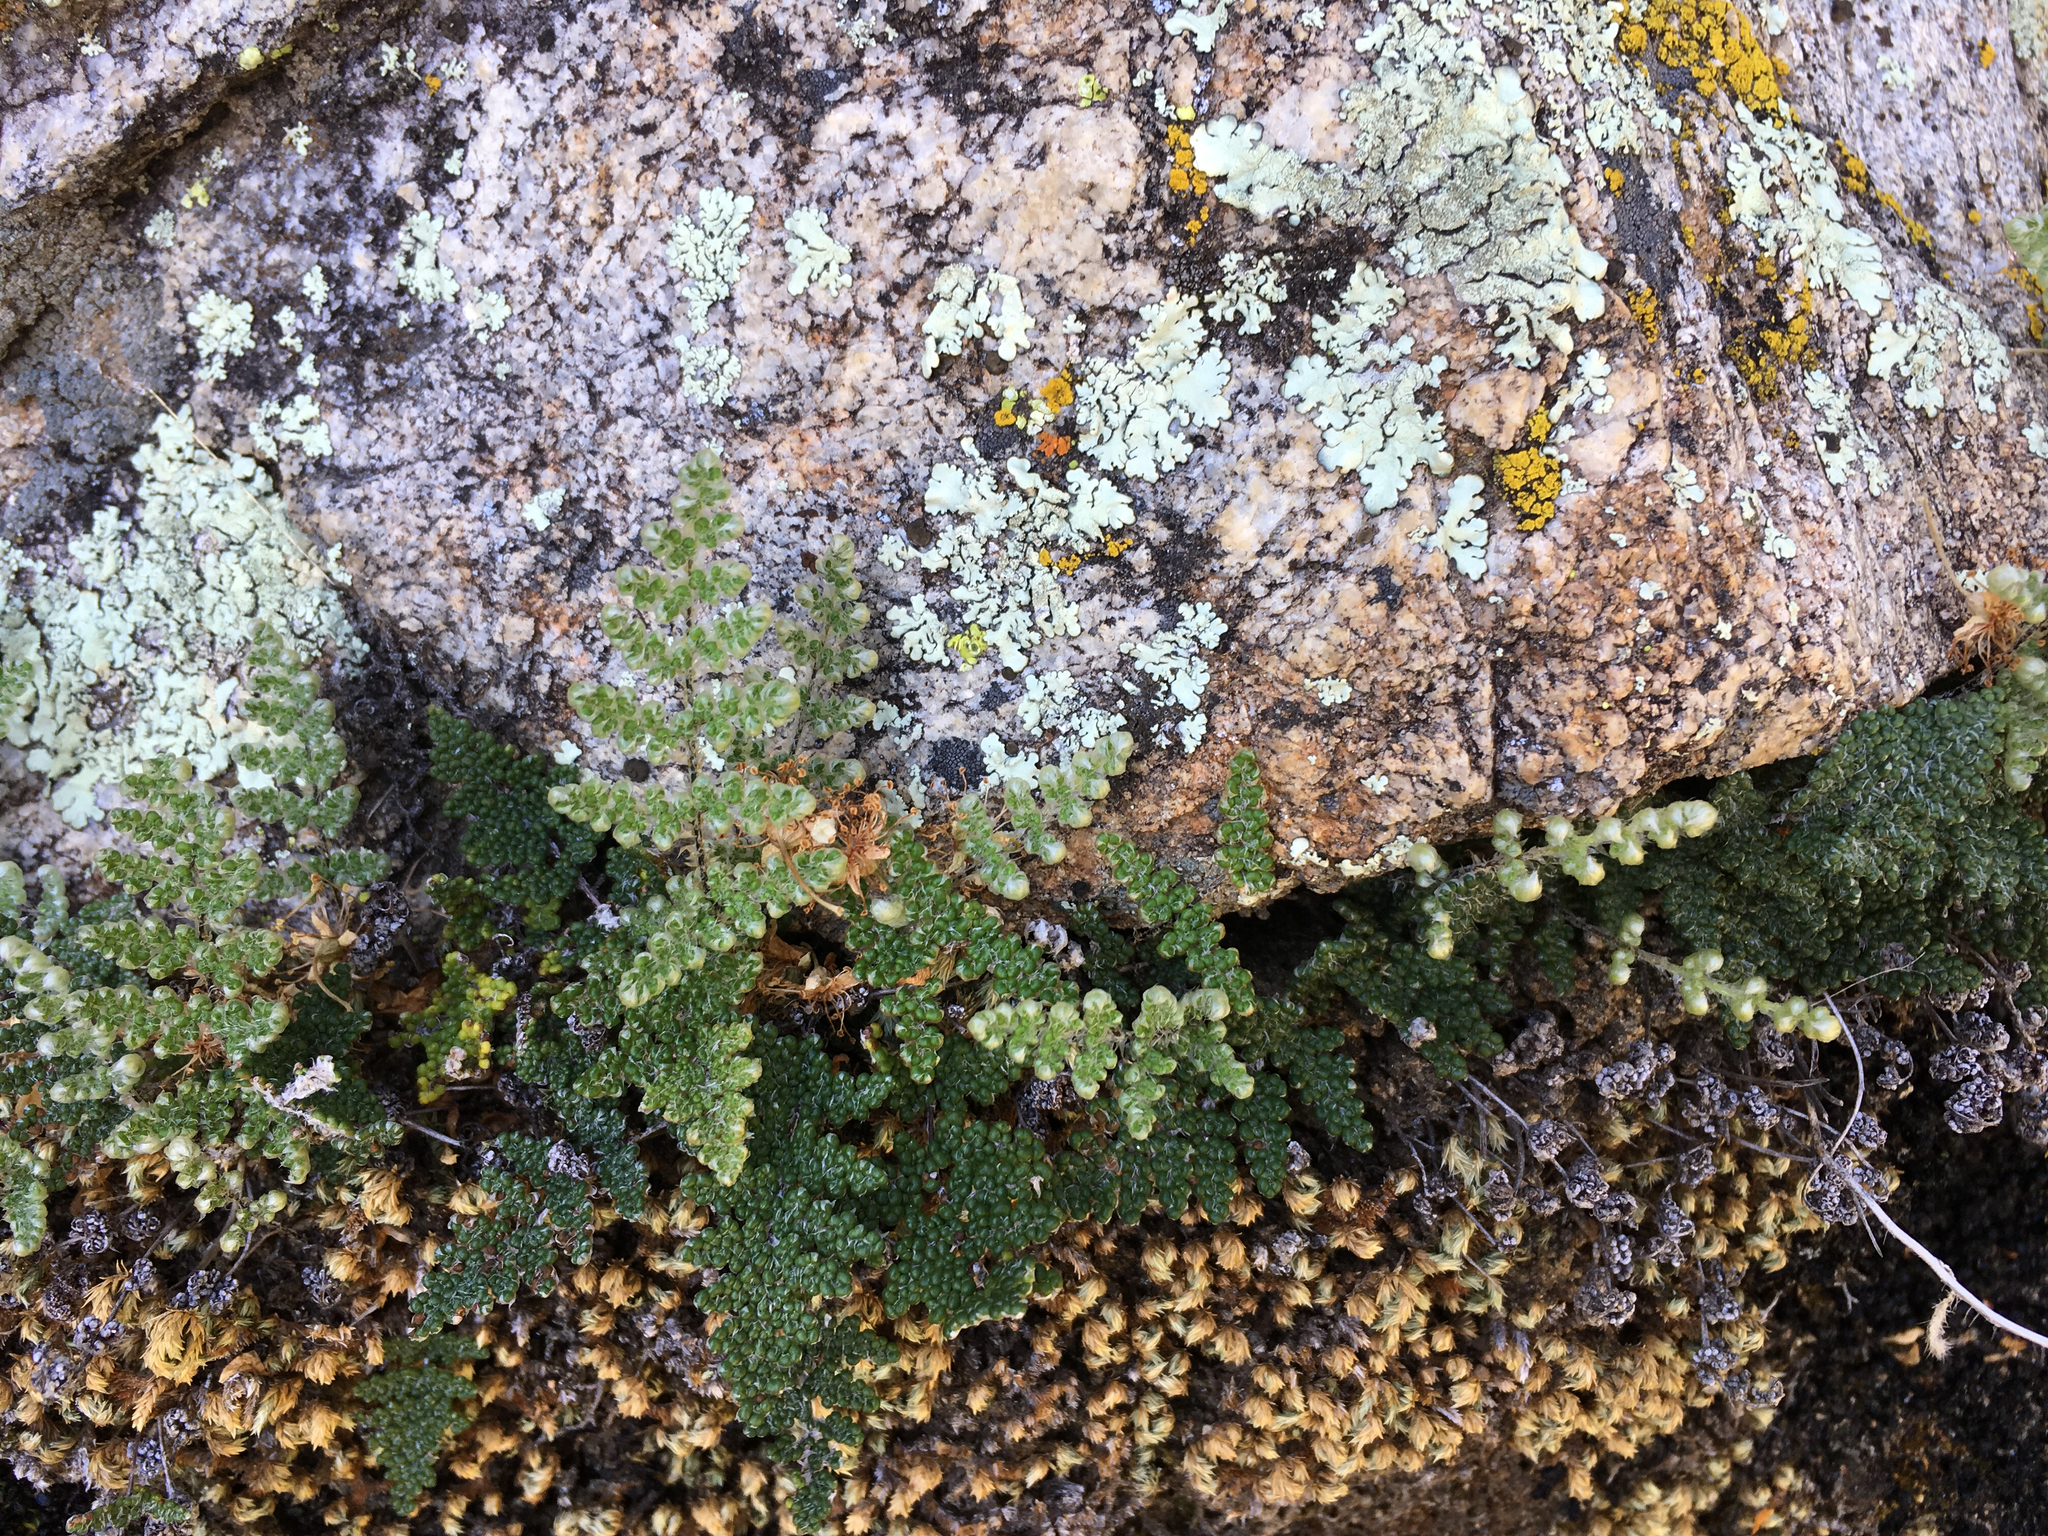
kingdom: Plantae
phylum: Tracheophyta
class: Polypodiopsida
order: Polypodiales
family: Pteridaceae
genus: Myriopteris
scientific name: Myriopteris covillei
